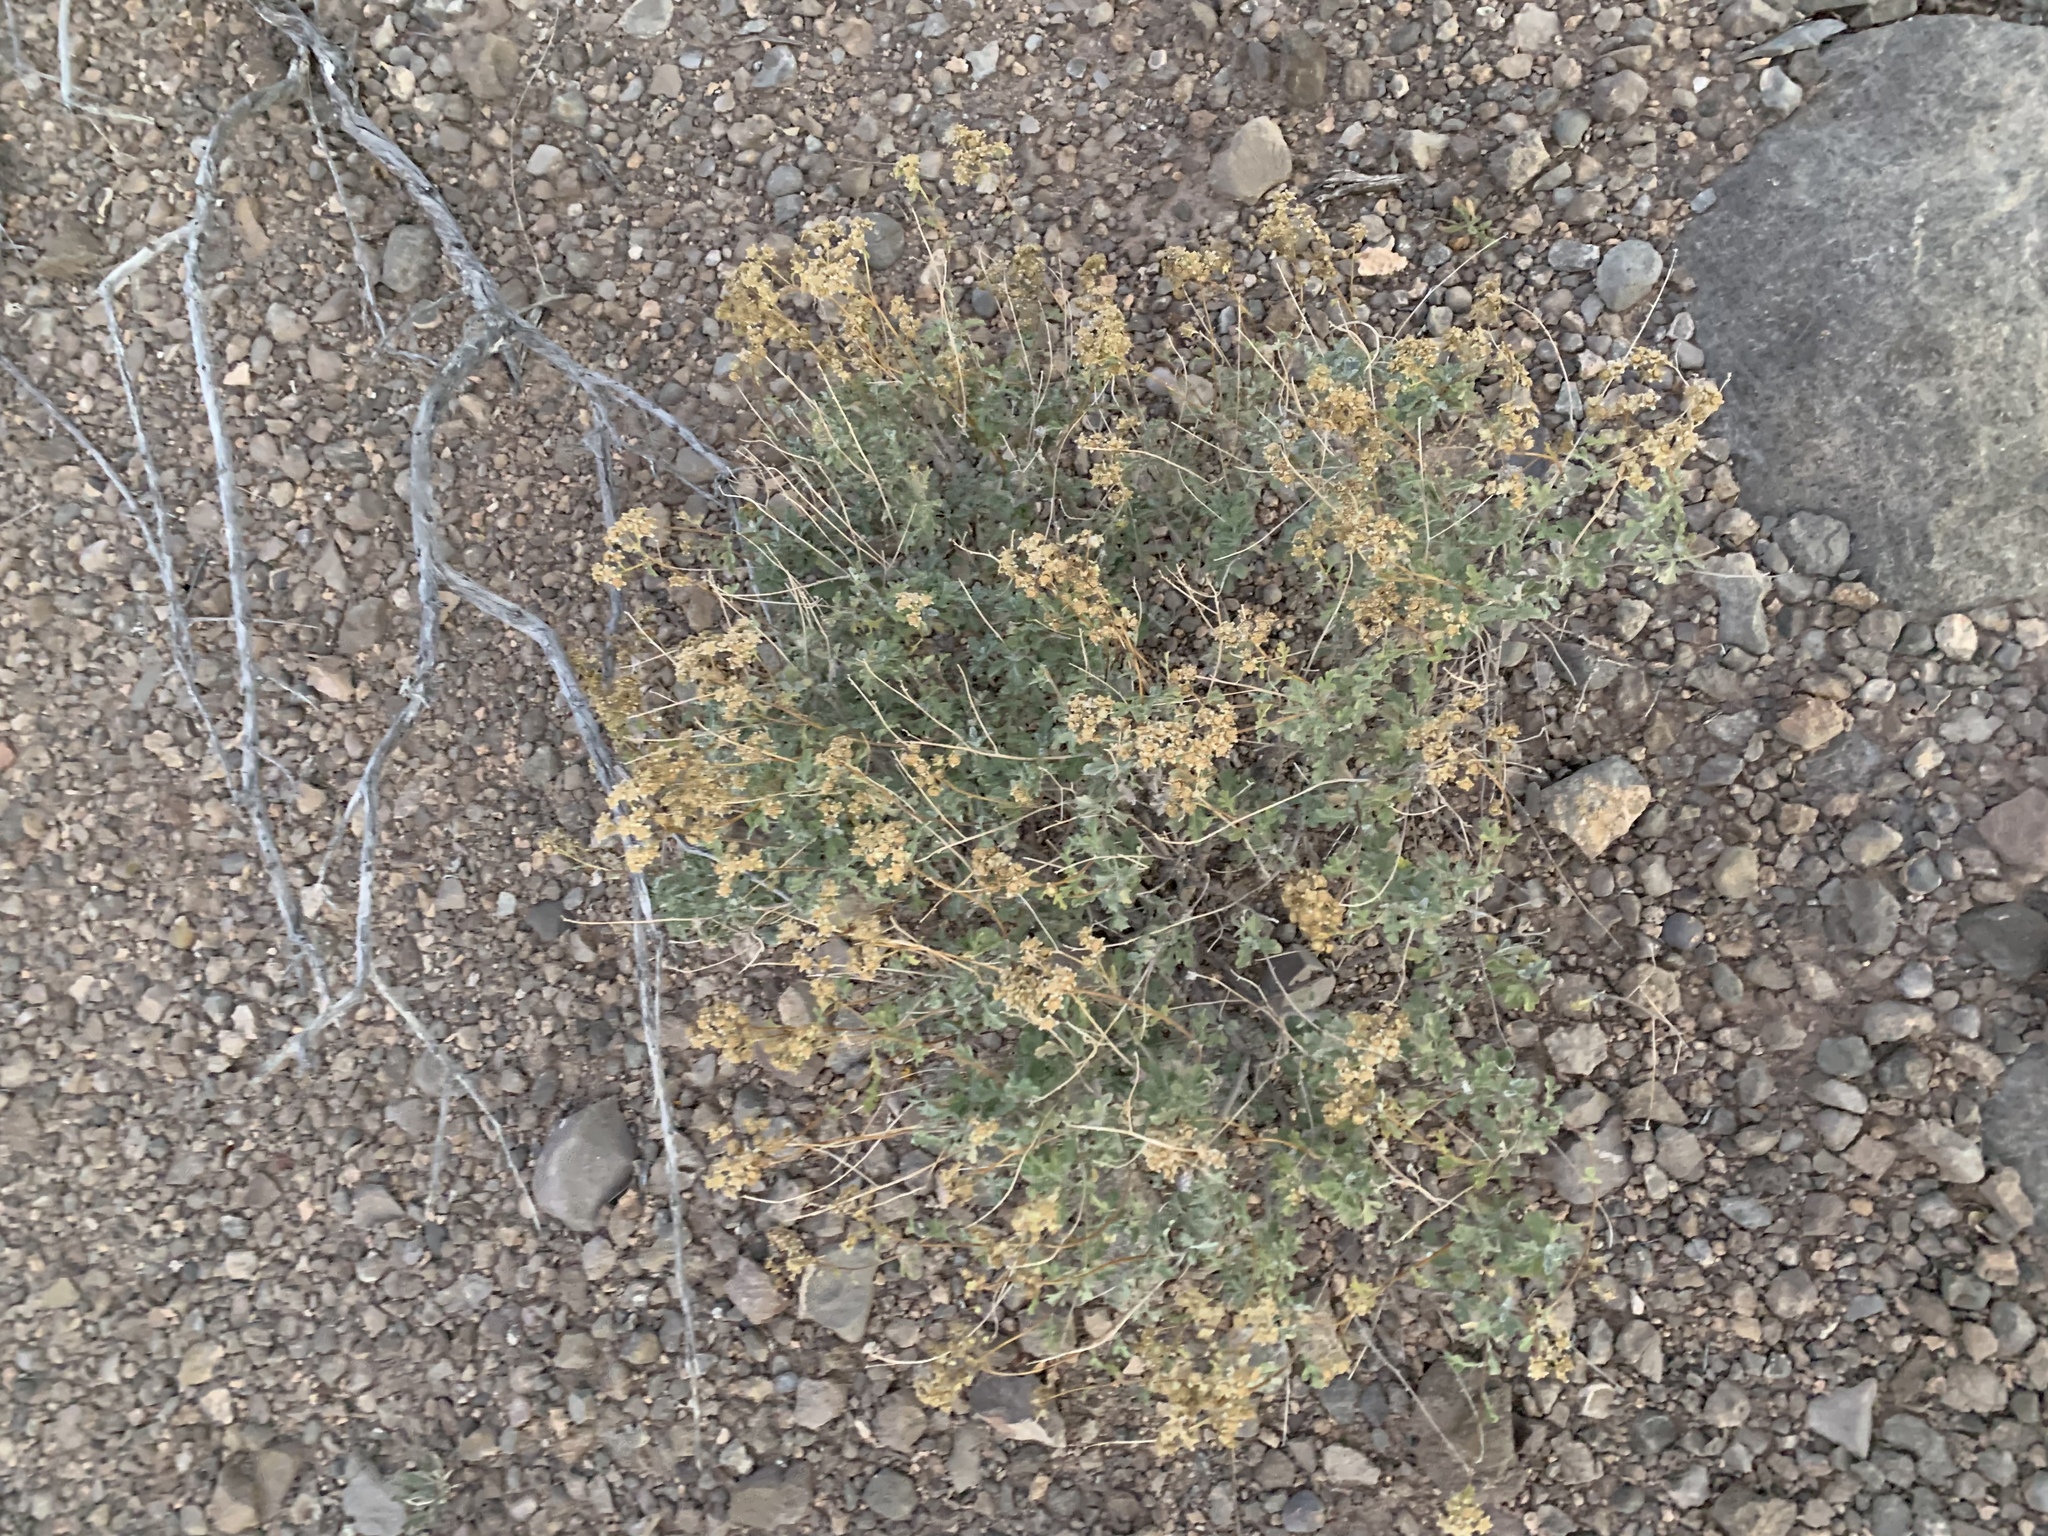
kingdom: Plantae
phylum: Tracheophyta
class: Magnoliopsida
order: Asterales
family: Asteraceae
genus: Parthenium
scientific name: Parthenium incanum
